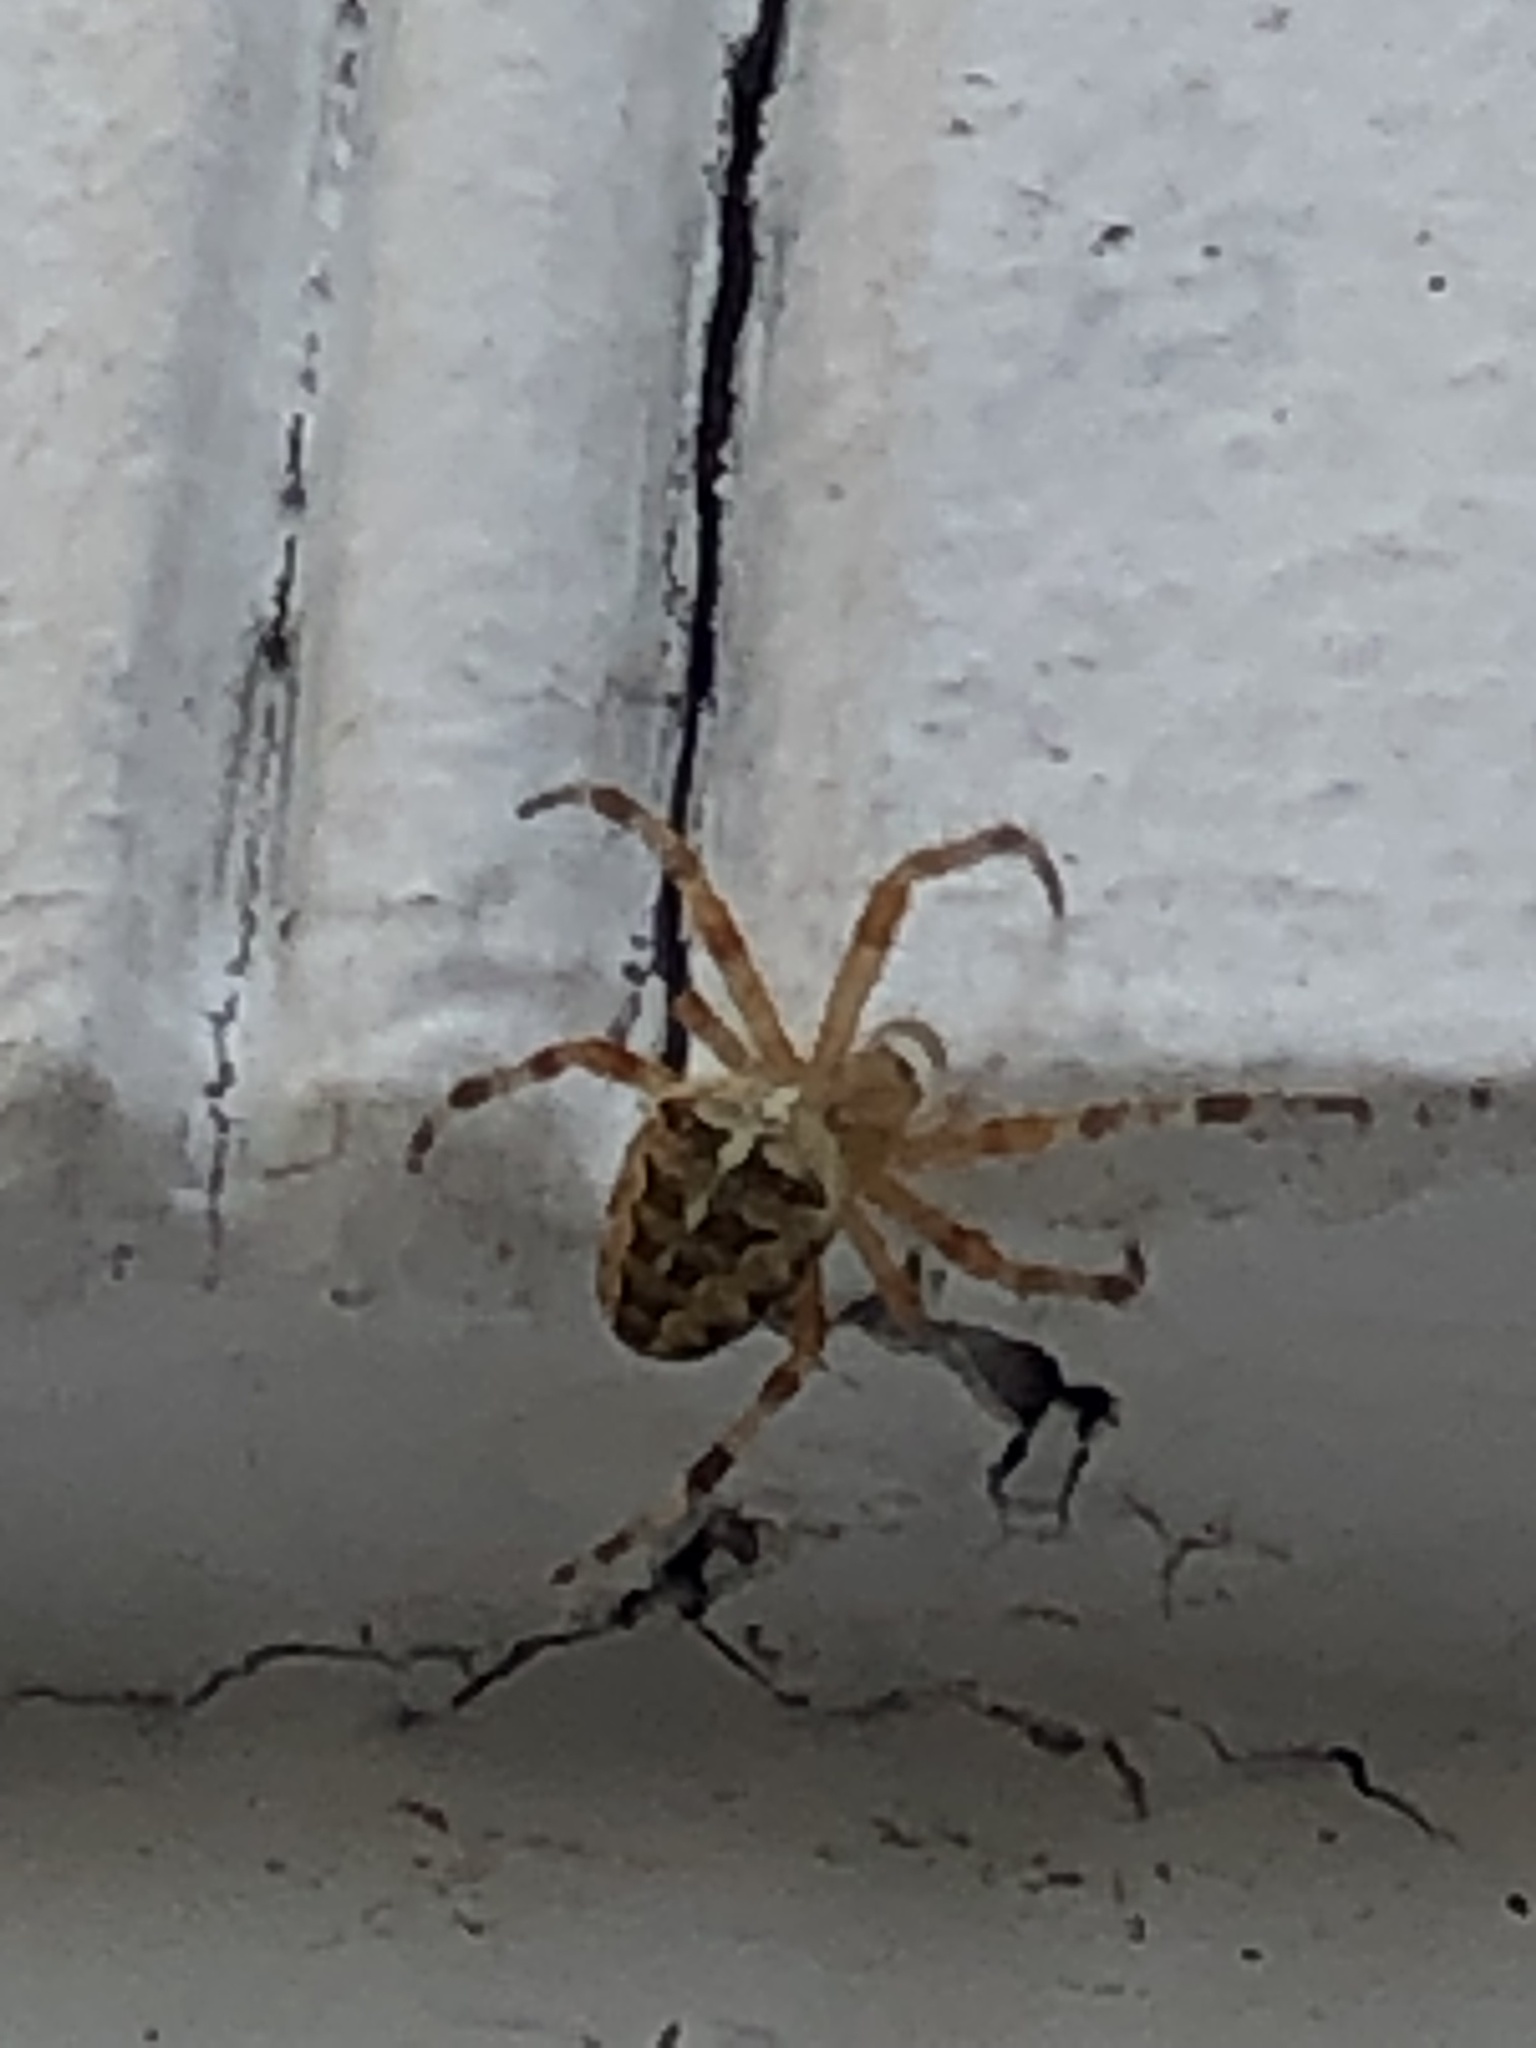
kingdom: Animalia
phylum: Arthropoda
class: Arachnida
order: Araneae
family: Araneidae
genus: Araneus
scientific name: Araneus diadematus
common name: Cross orbweaver
